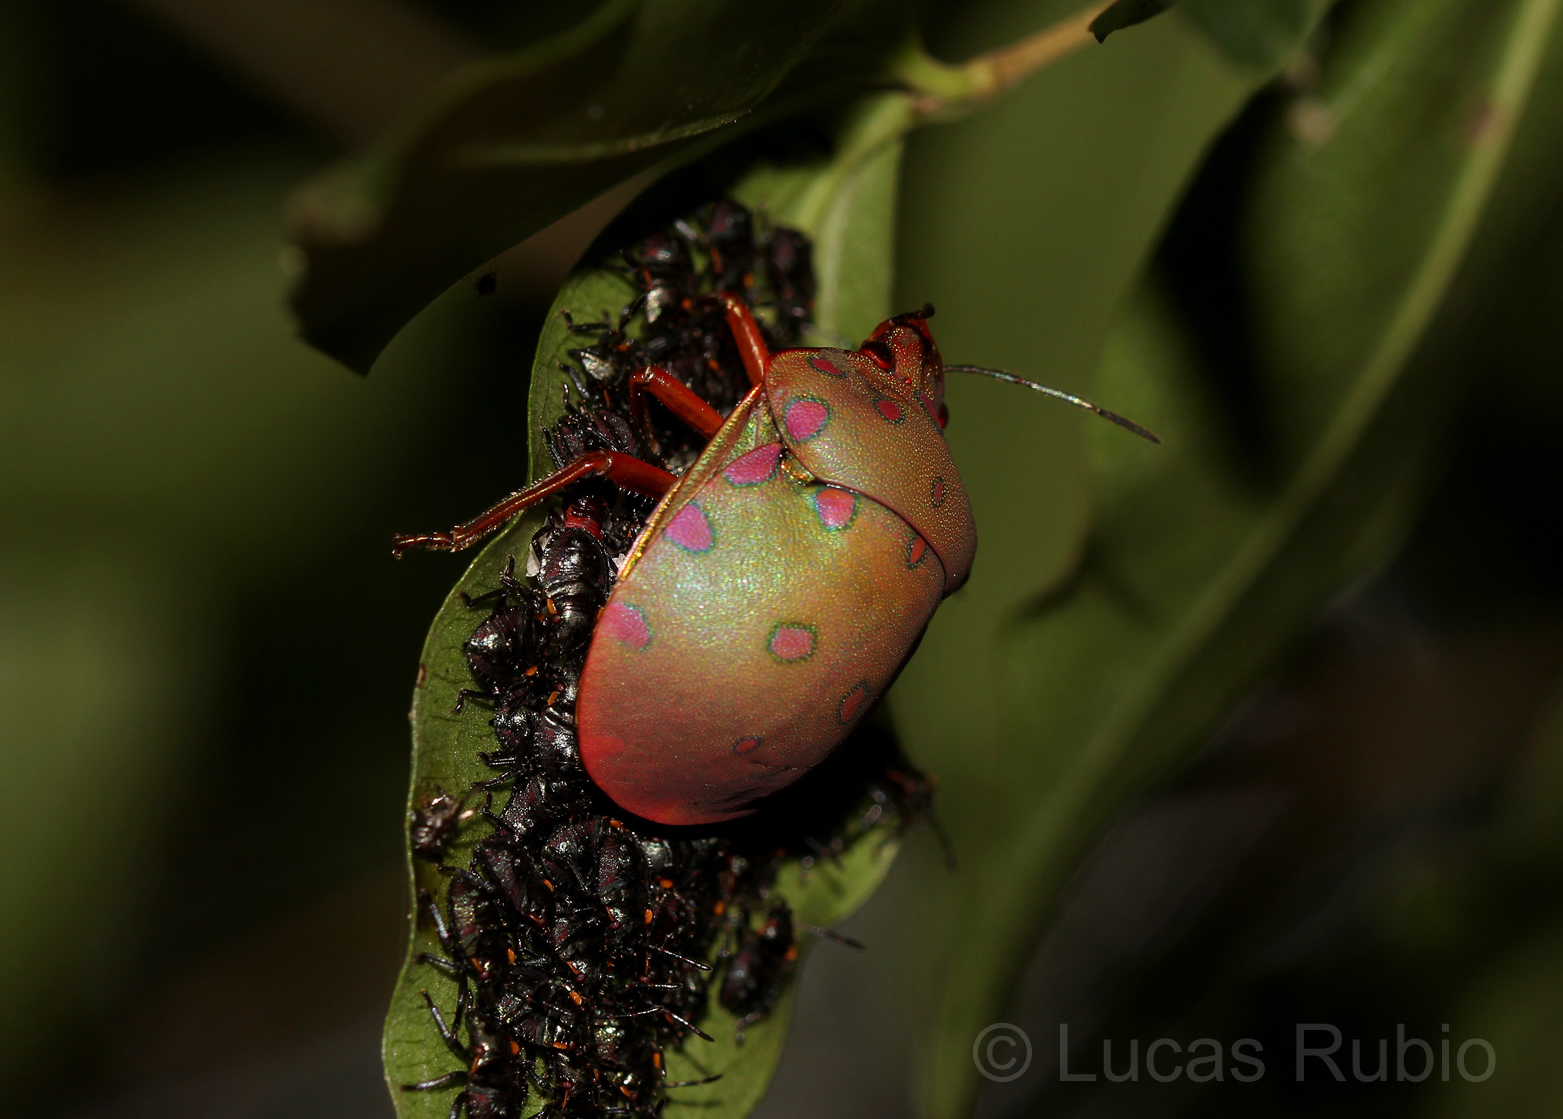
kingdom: Animalia
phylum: Arthropoda
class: Insecta
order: Hemiptera
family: Scutelleridae
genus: Pachycoris
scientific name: Pachycoris torridus
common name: Torrid jewel bug
